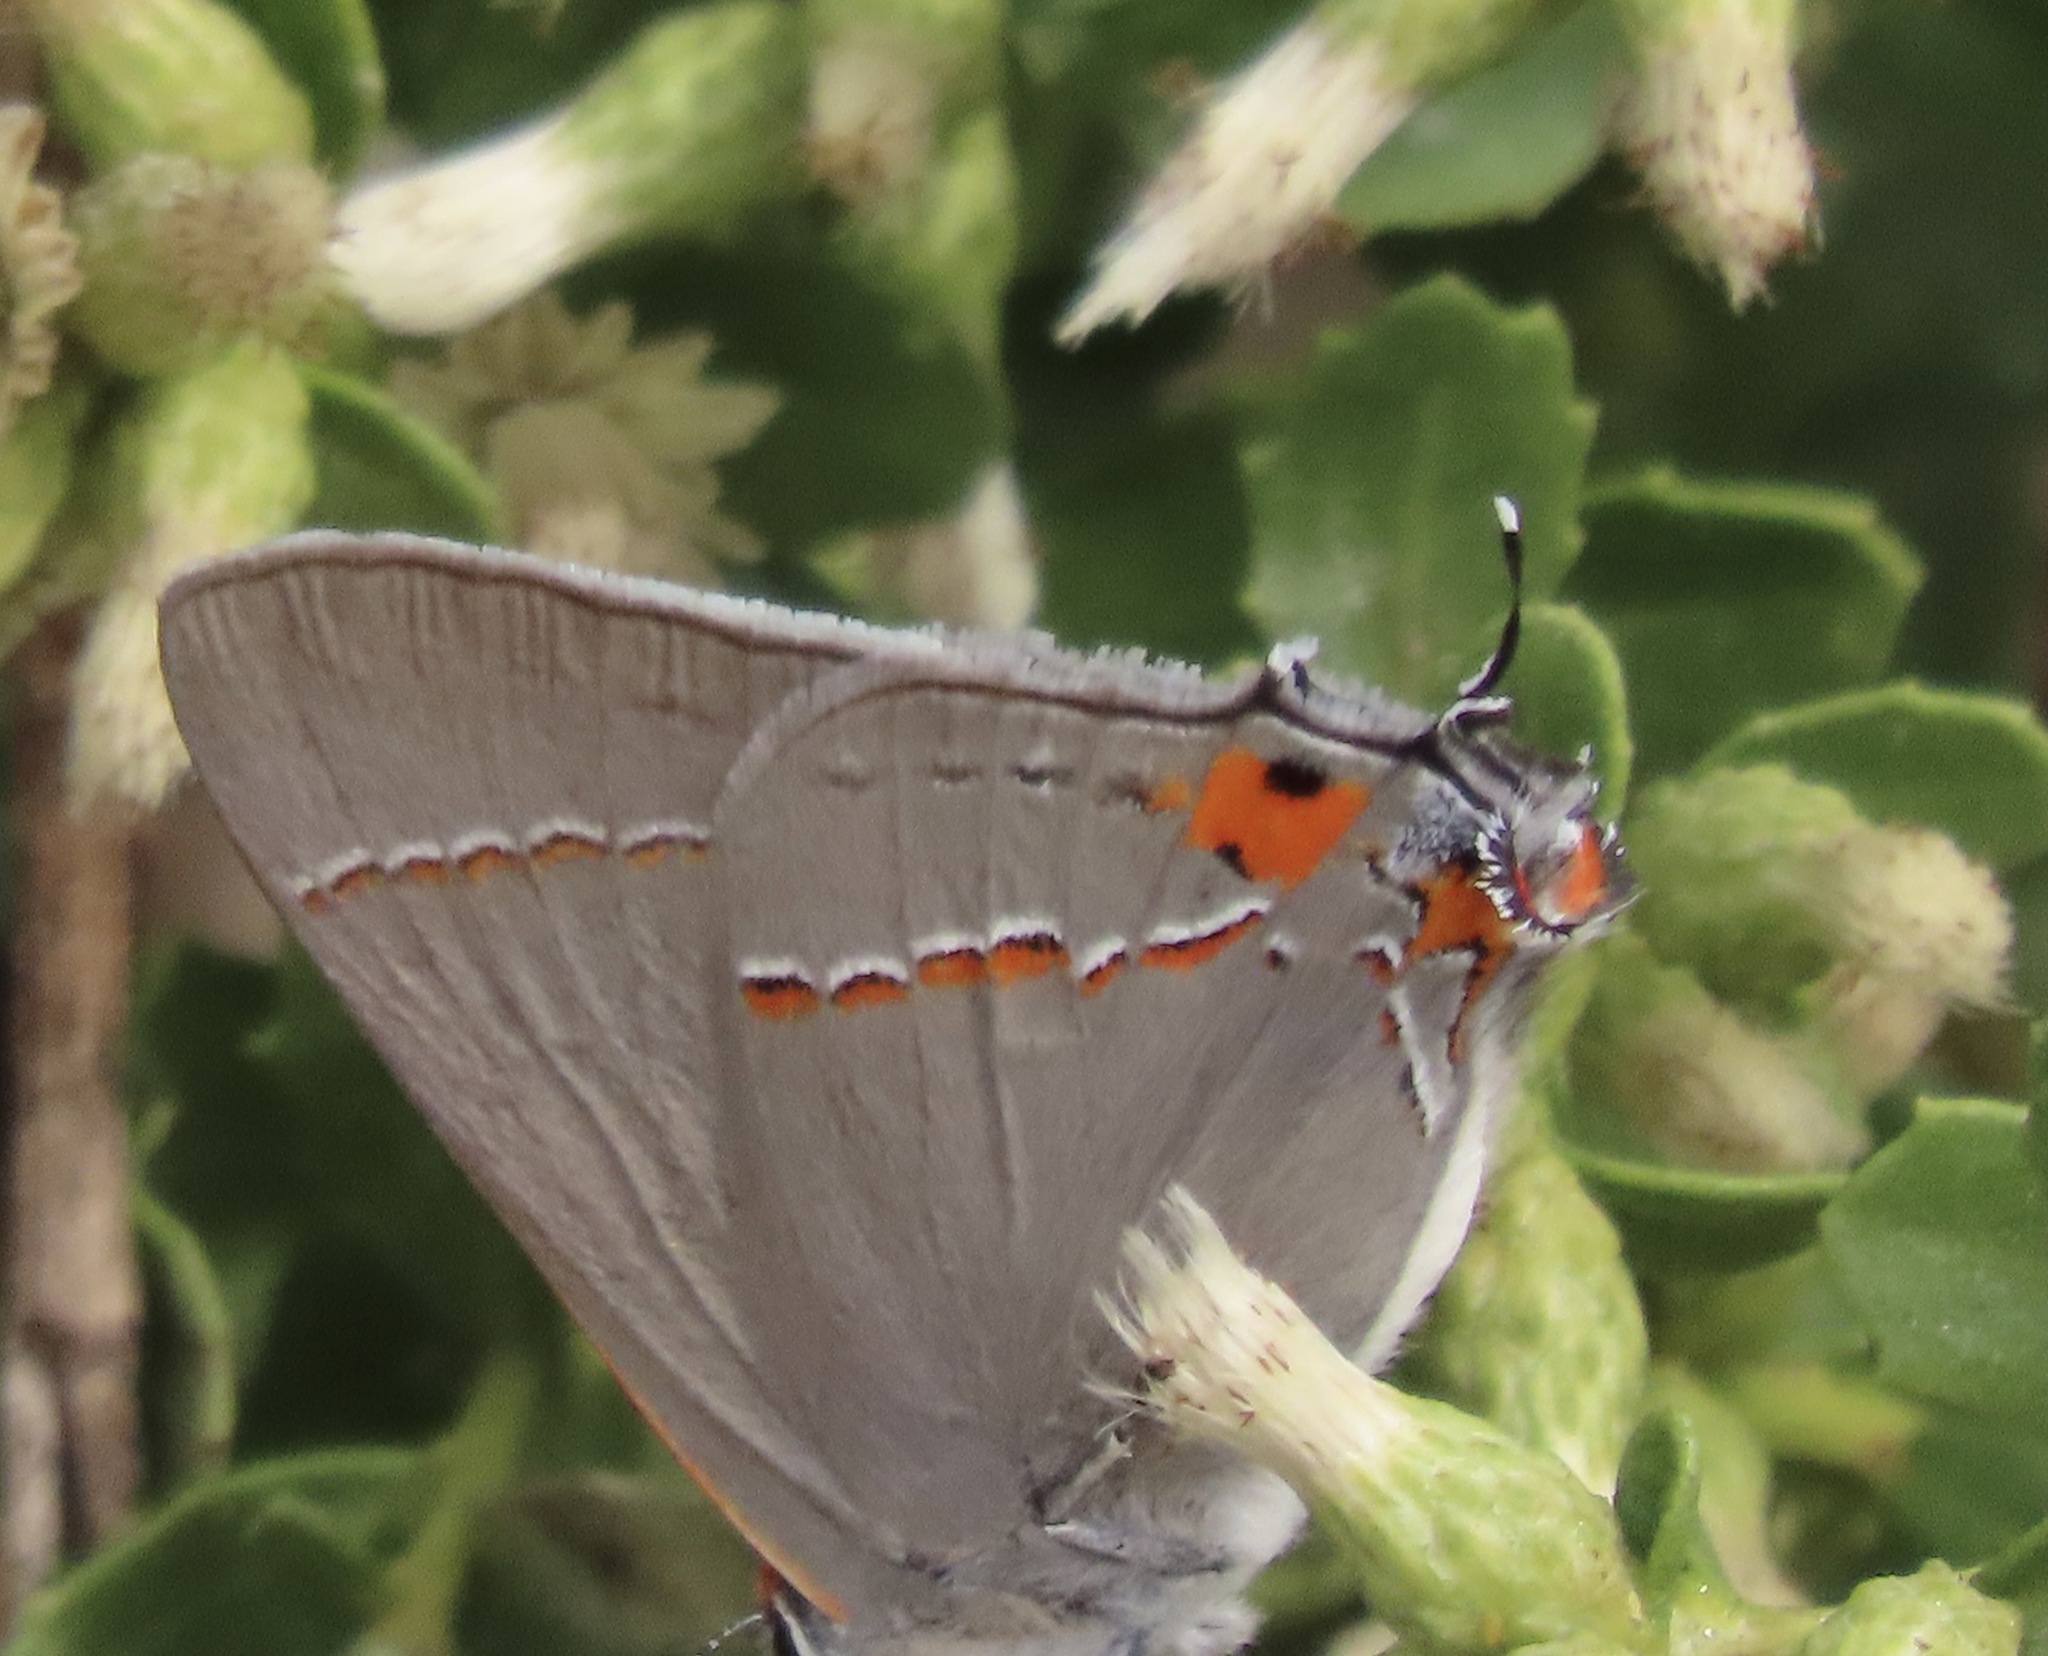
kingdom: Animalia
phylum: Arthropoda
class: Insecta
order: Lepidoptera
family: Lycaenidae
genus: Strymon
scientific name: Strymon melinus
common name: Gray hairstreak
